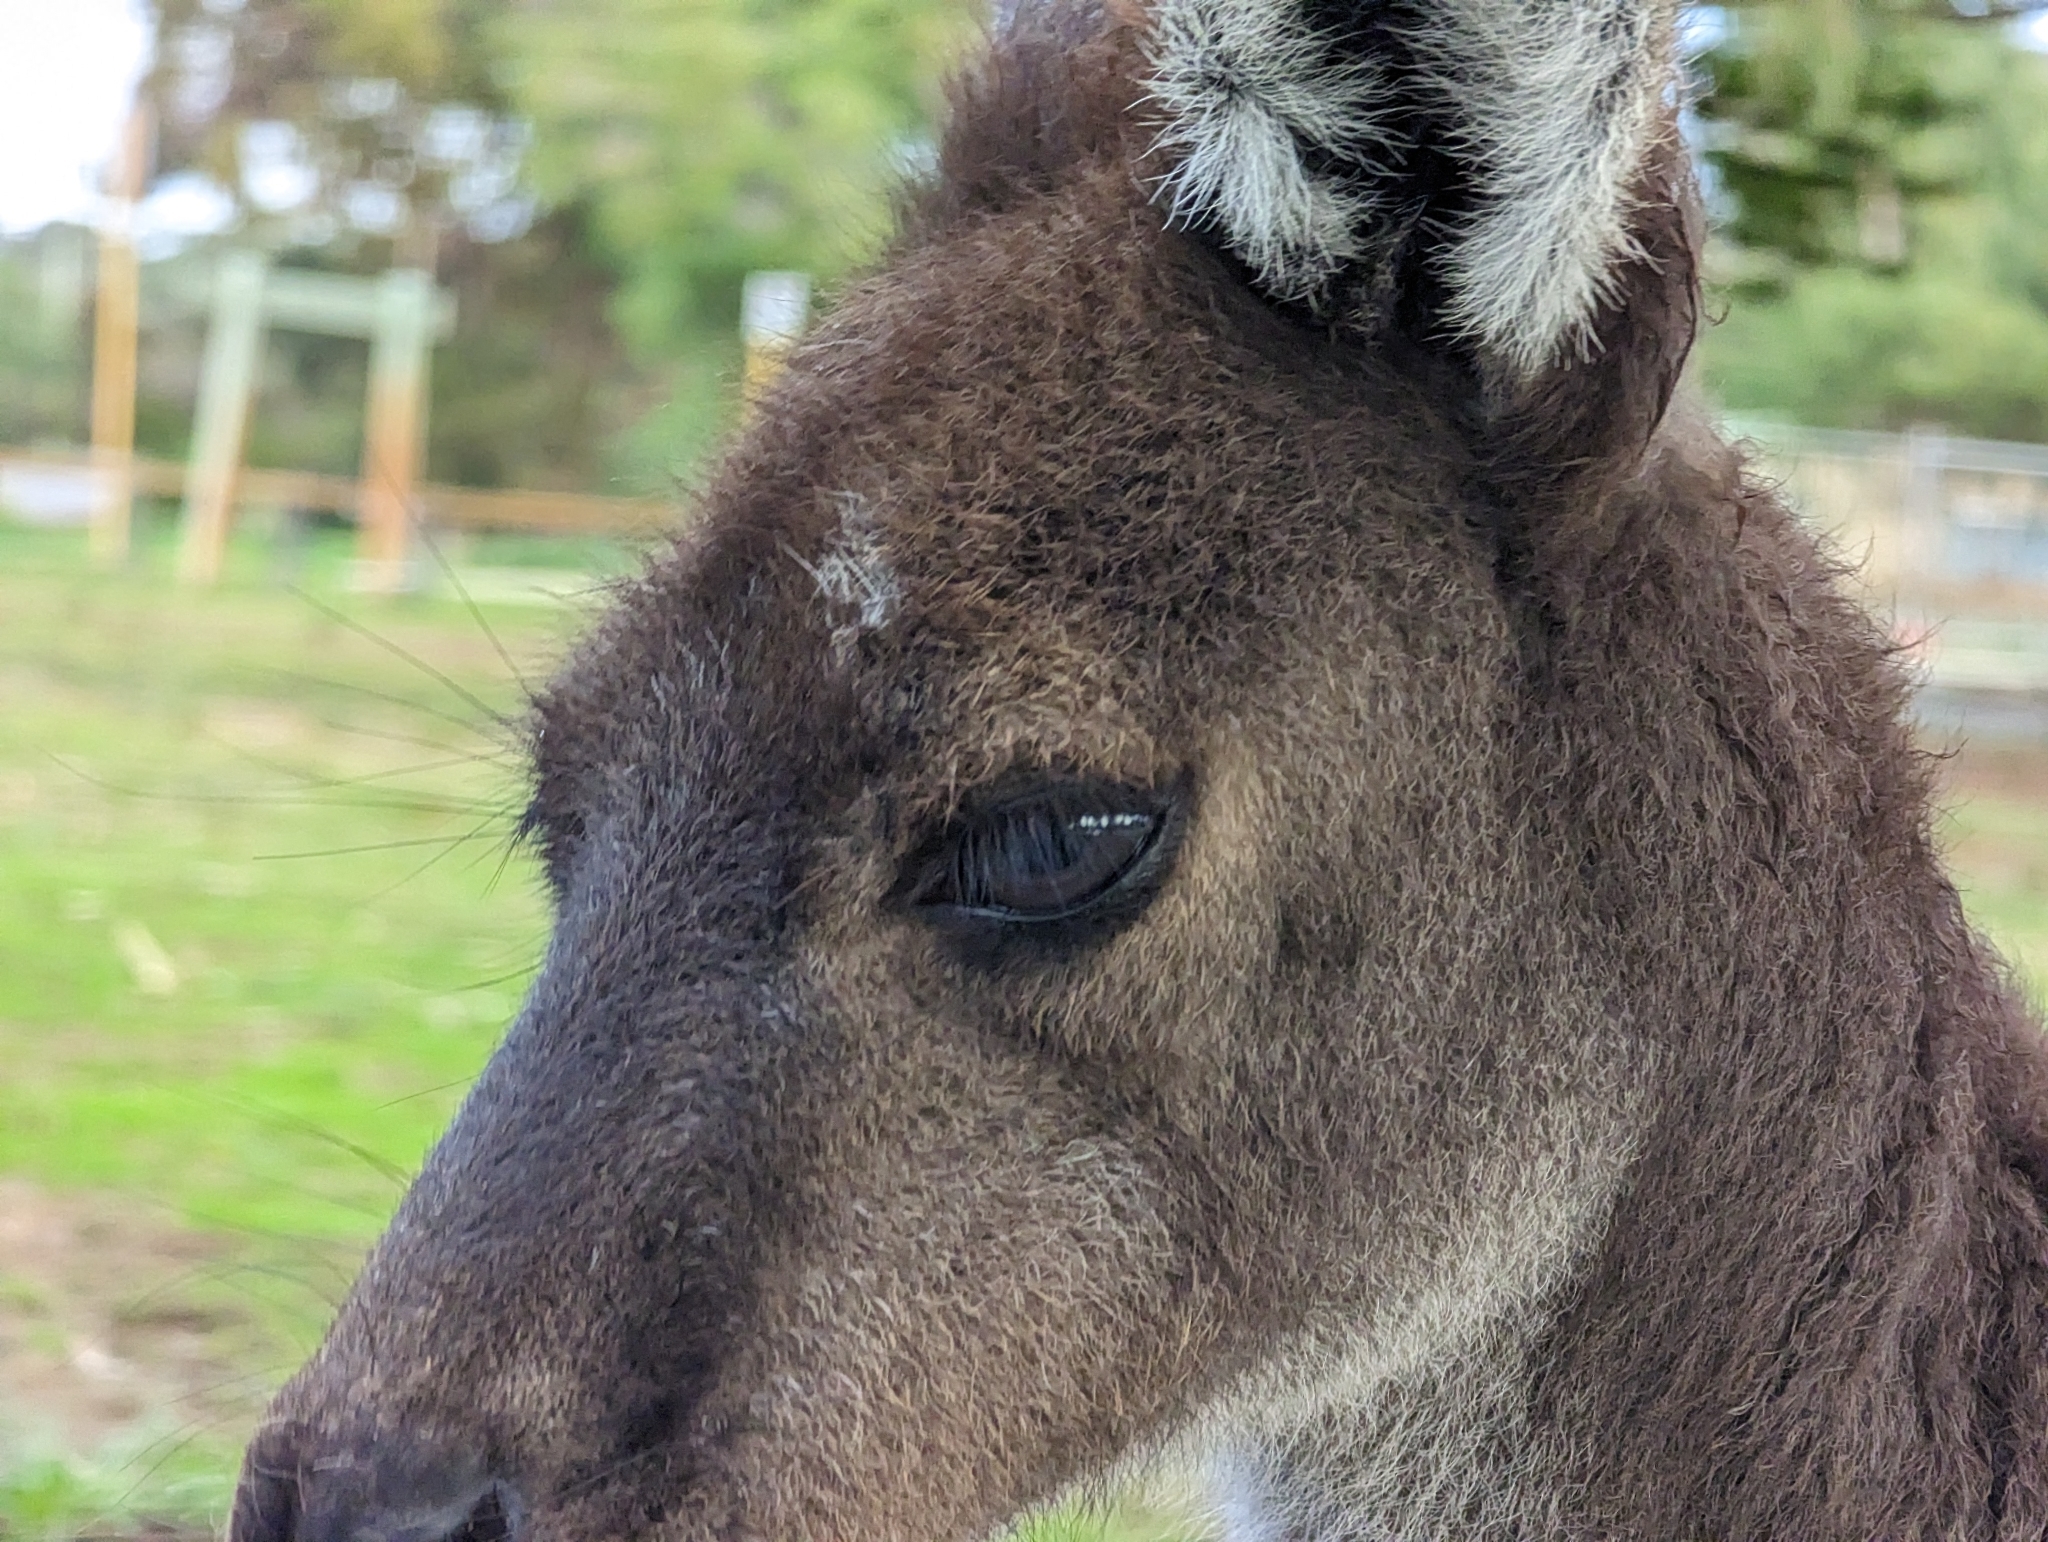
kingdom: Animalia
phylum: Chordata
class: Mammalia
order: Diprotodontia
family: Macropodidae
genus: Macropus
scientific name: Macropus fuliginosus
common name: Western grey kangaroo
